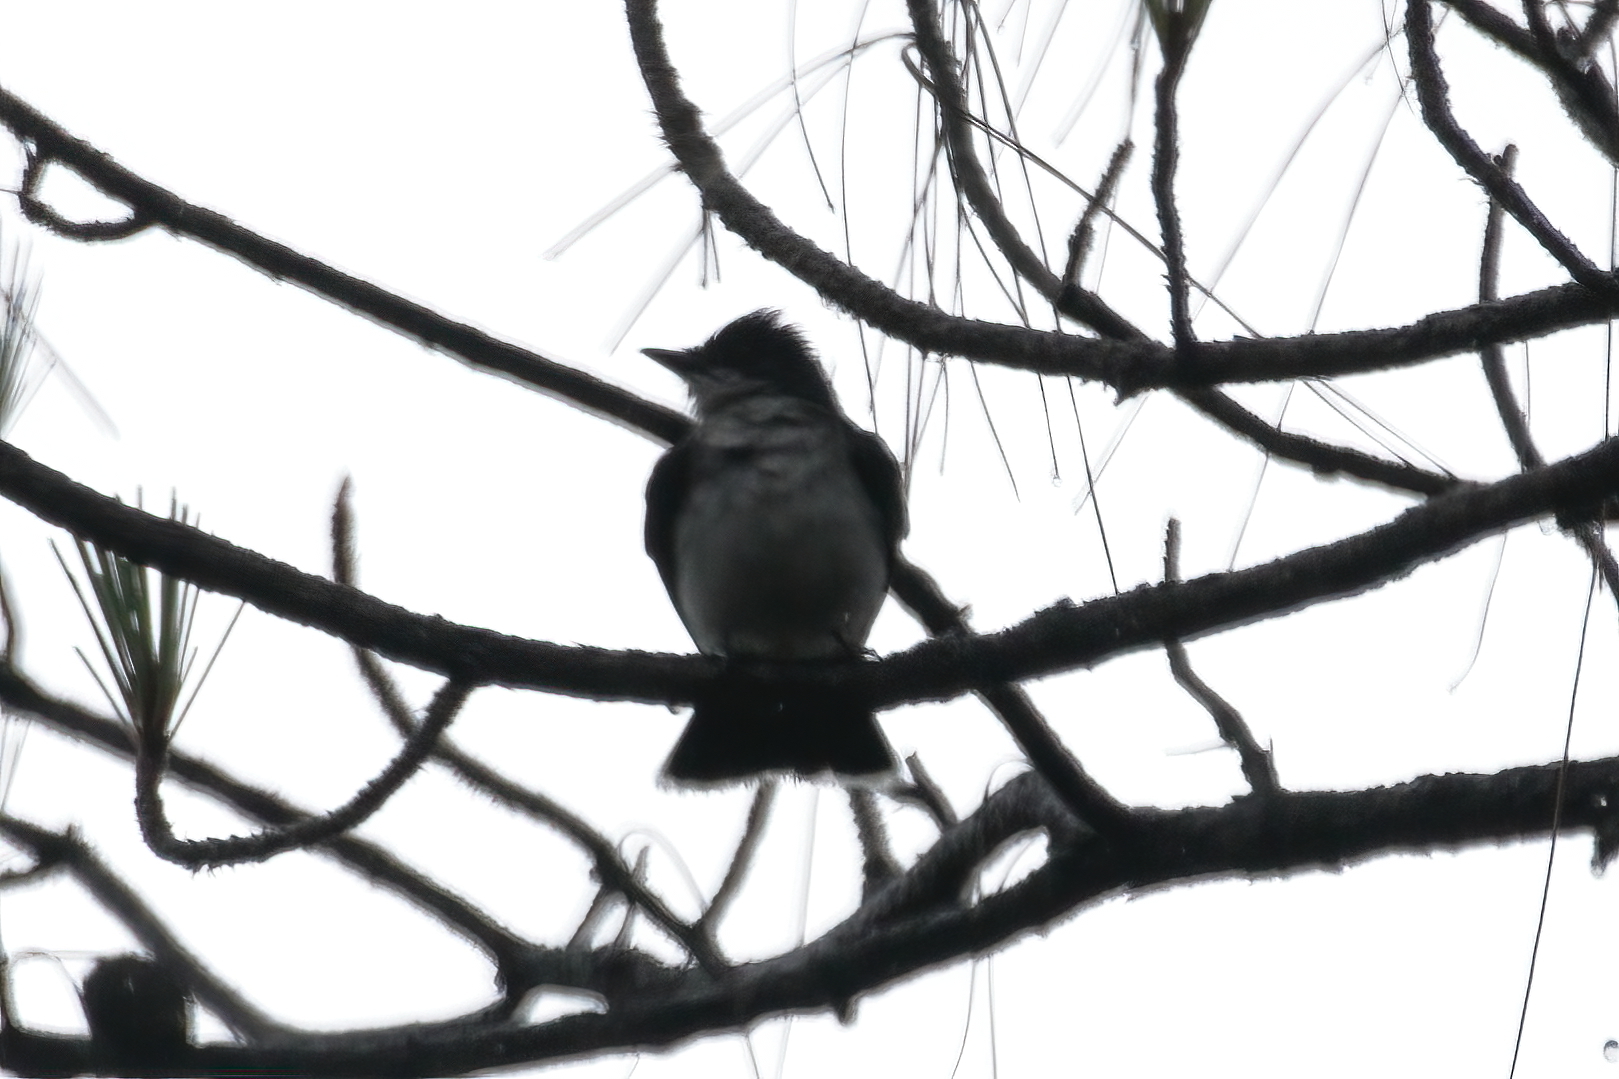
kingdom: Animalia
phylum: Chordata
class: Aves
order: Passeriformes
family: Tyrannidae
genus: Tyrannus
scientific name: Tyrannus tyrannus
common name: Eastern kingbird
